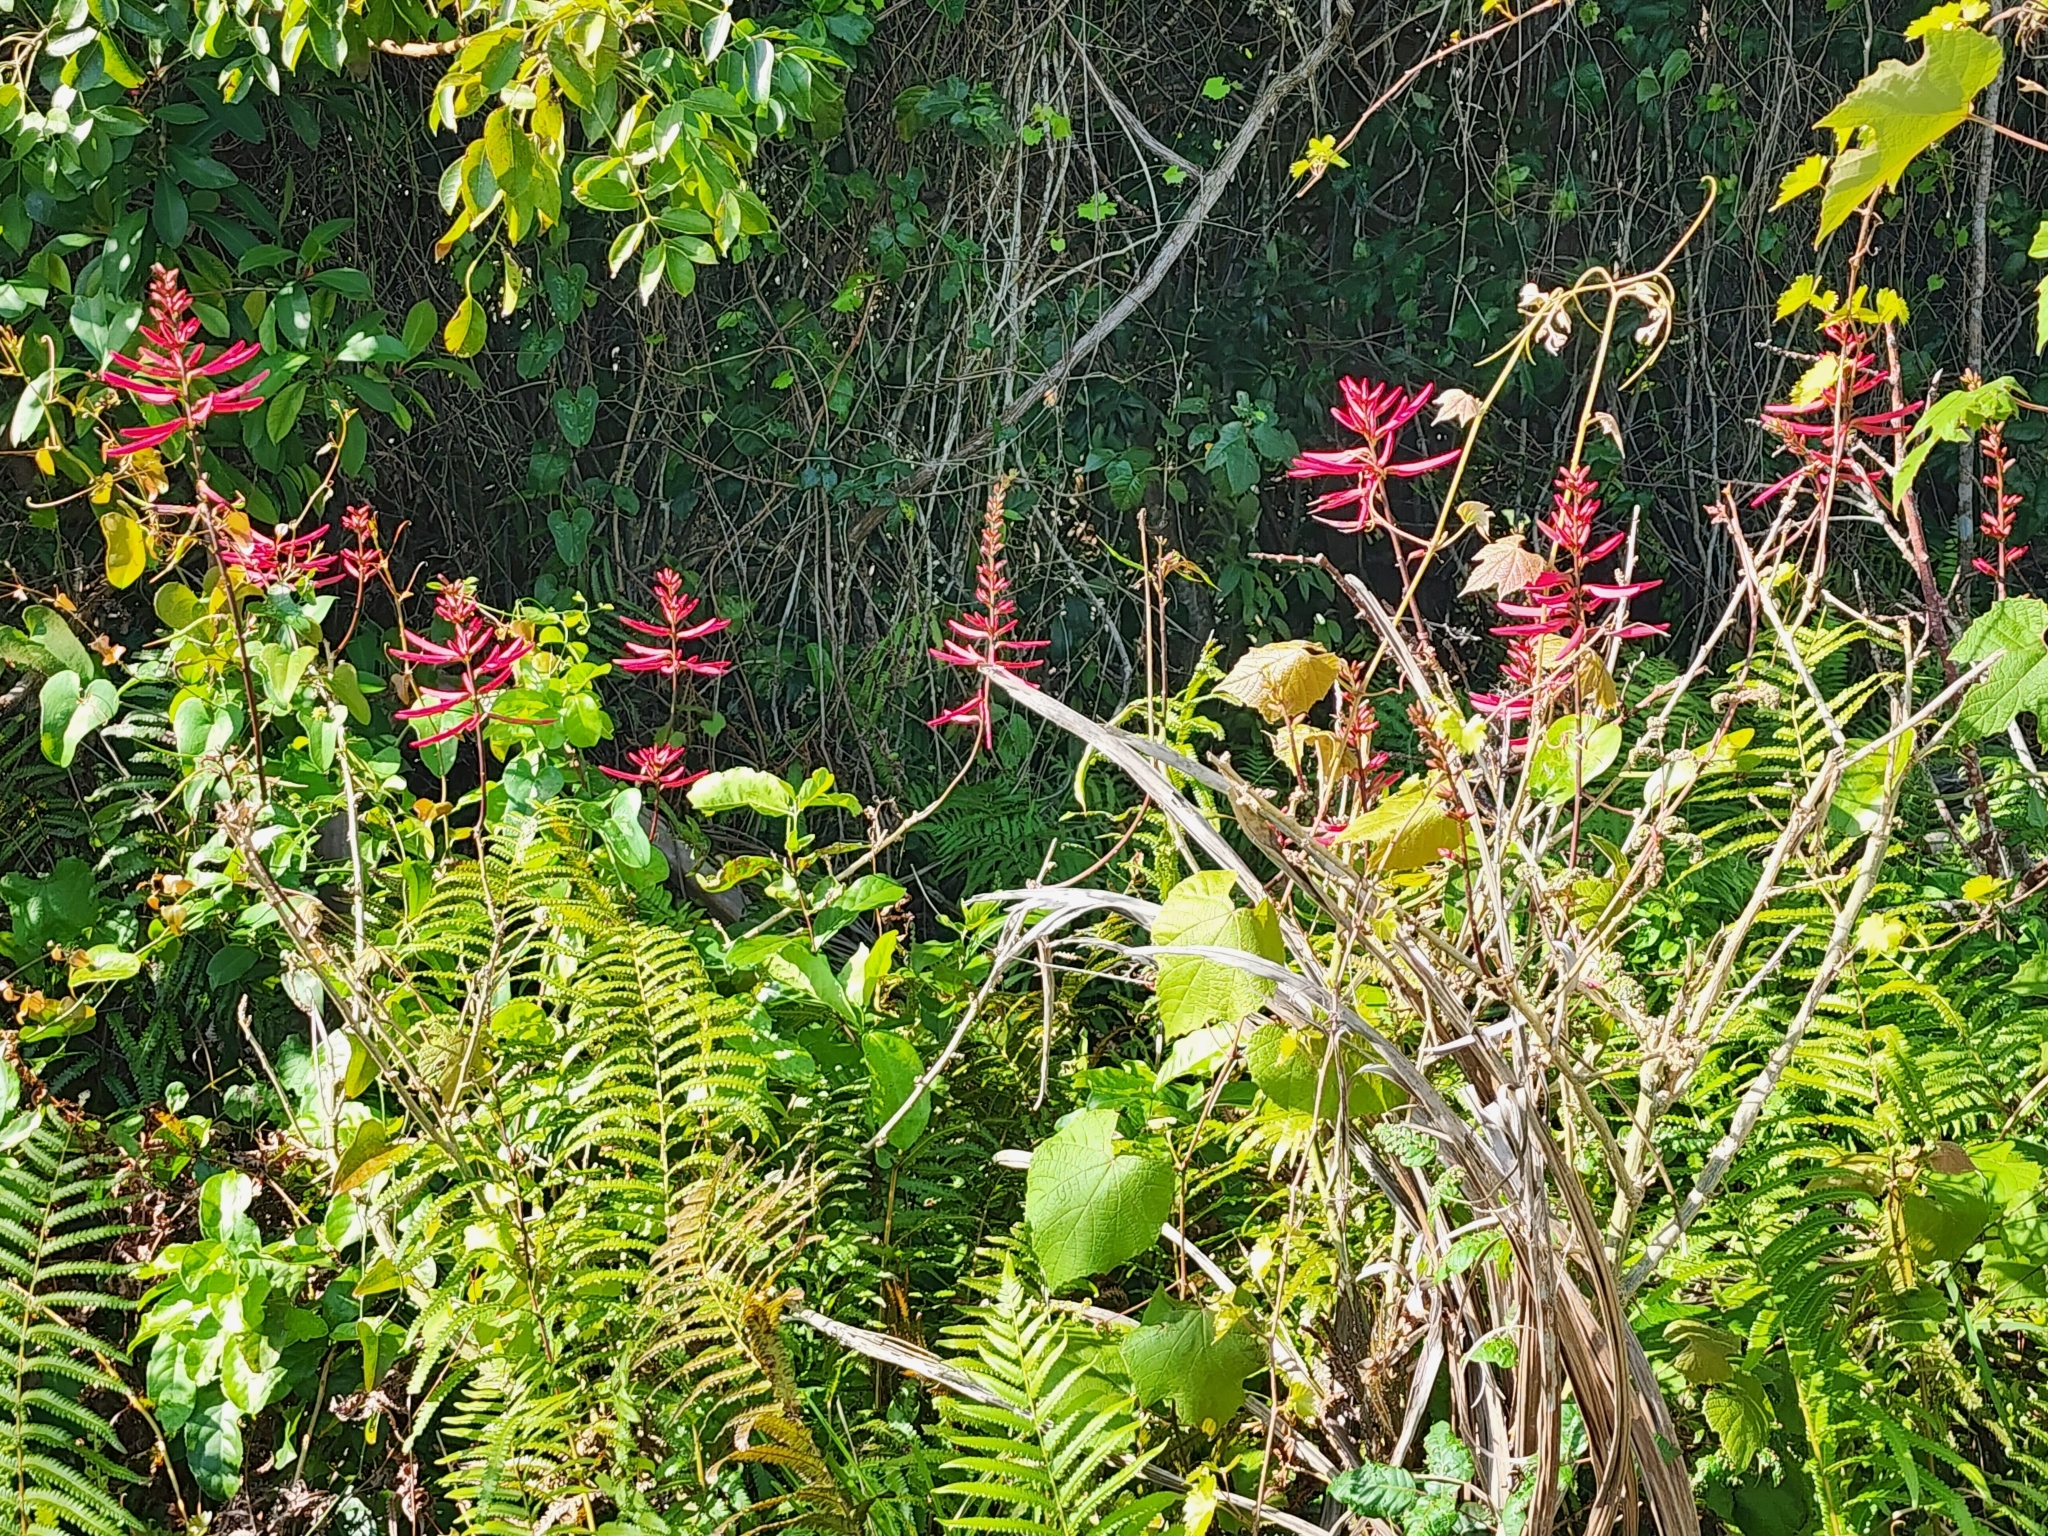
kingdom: Plantae
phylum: Tracheophyta
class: Magnoliopsida
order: Fabales
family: Fabaceae
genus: Erythrina
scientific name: Erythrina herbacea
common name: Coral-bean
